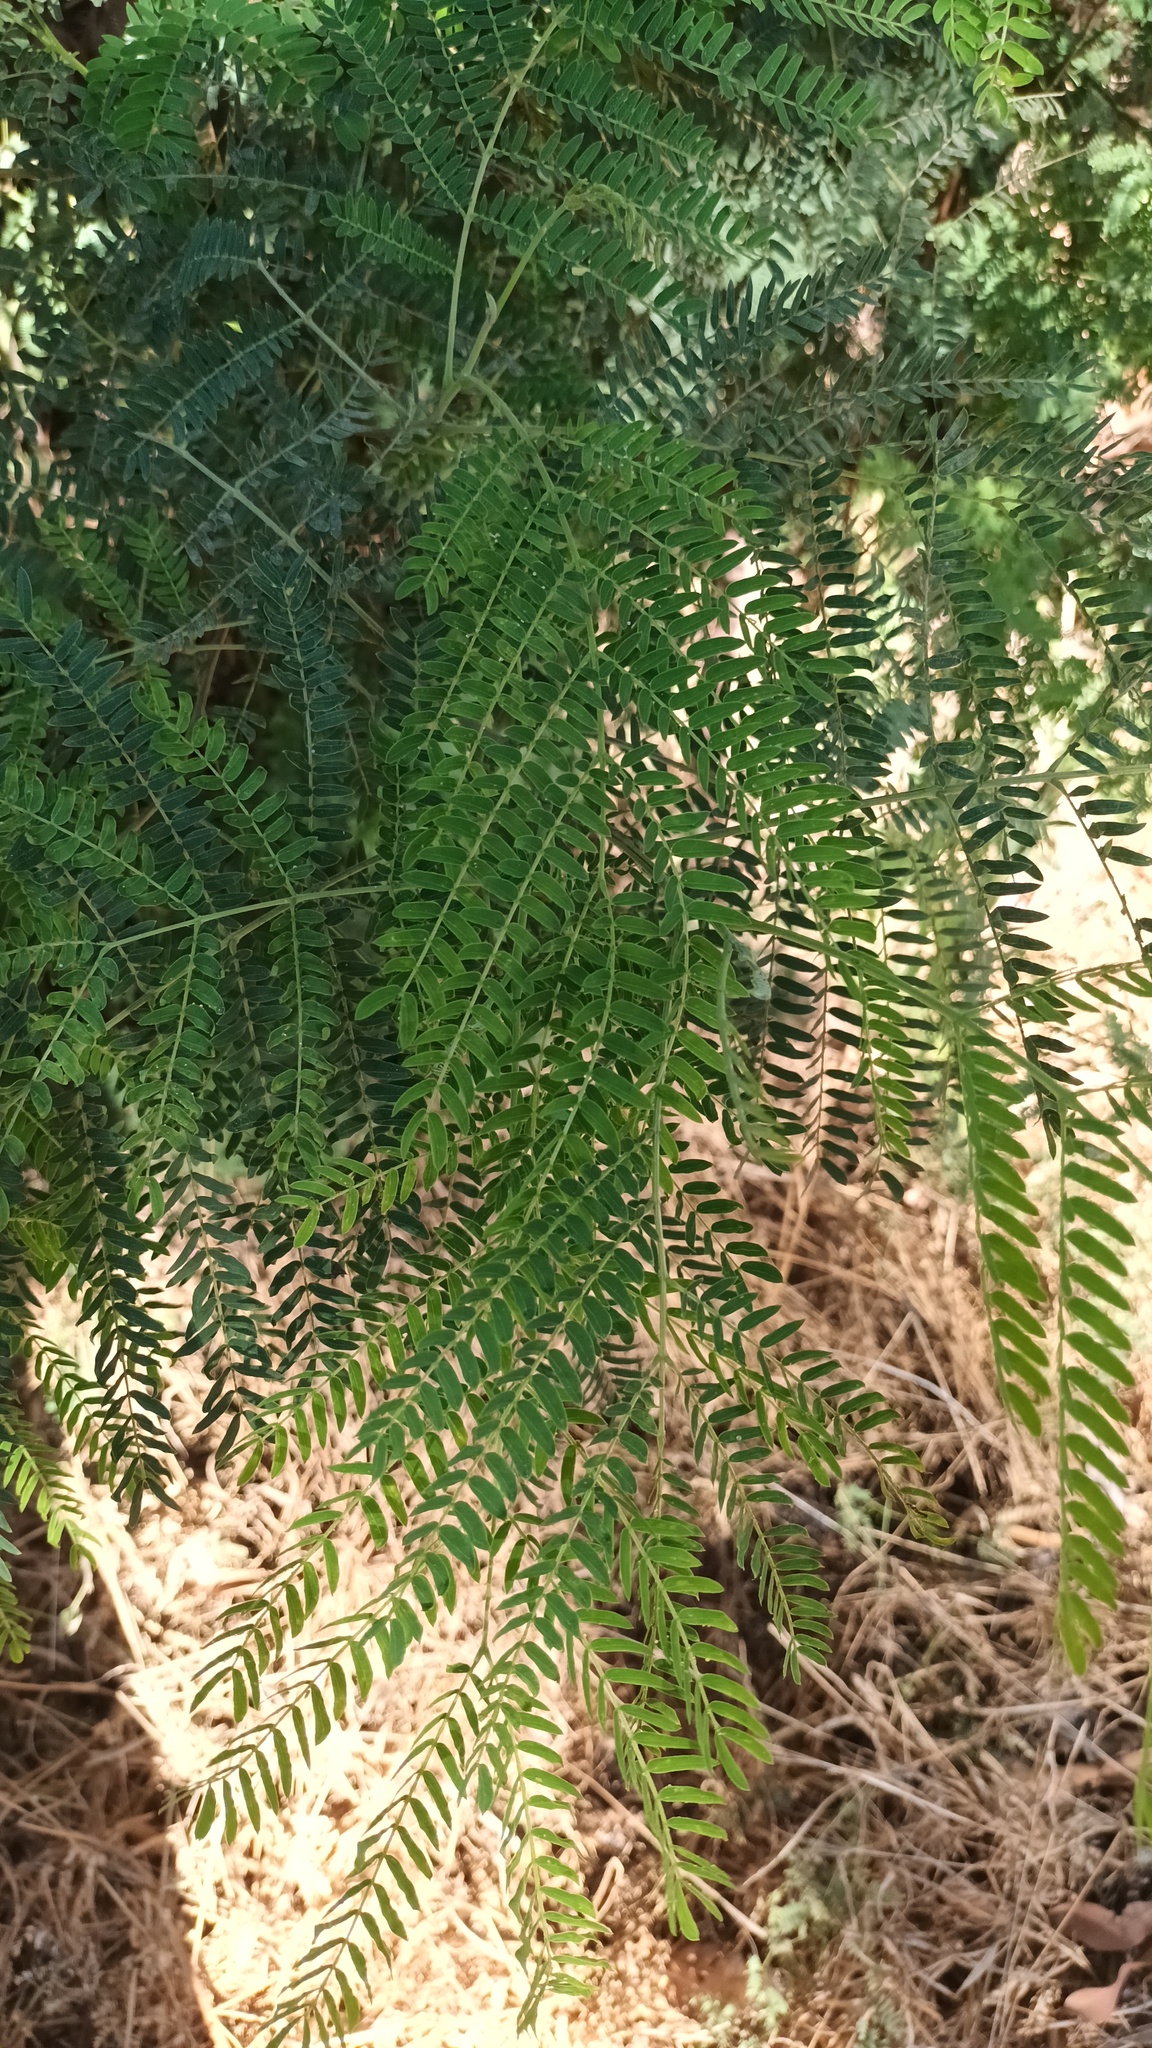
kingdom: Plantae
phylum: Tracheophyta
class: Magnoliopsida
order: Fabales
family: Fabaceae
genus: Leucaena
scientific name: Leucaena leucocephala
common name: White leadtree
